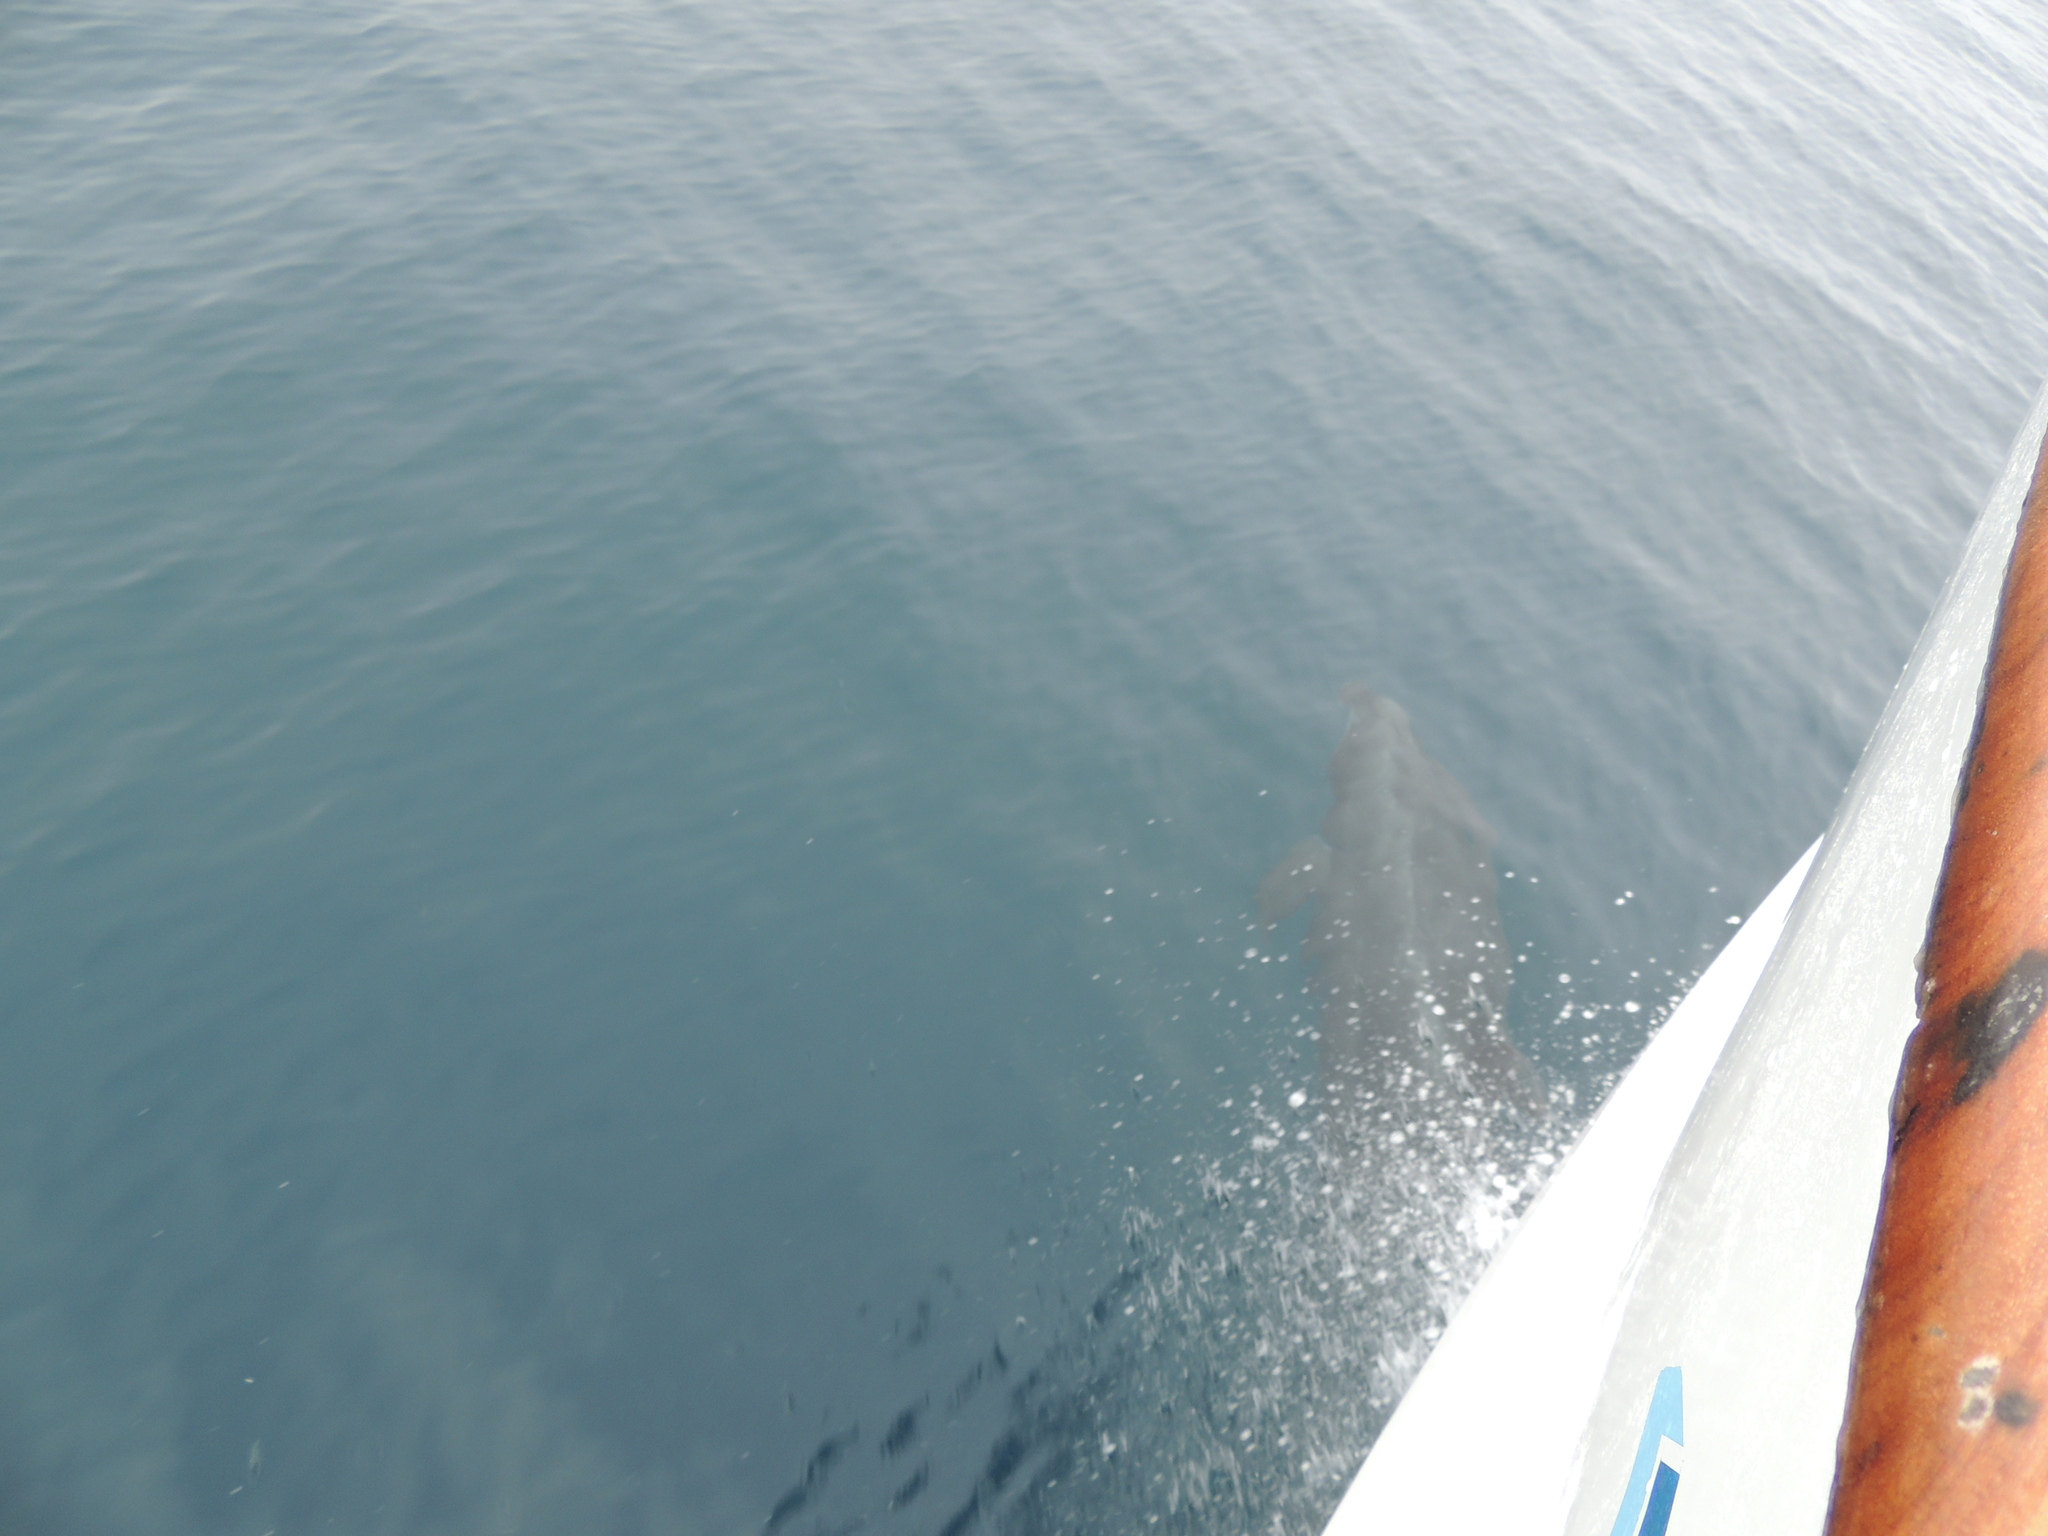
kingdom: Animalia
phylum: Chordata
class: Mammalia
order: Cetacea
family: Delphinidae
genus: Tursiops
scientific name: Tursiops truncatus
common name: Bottlenose dolphin
